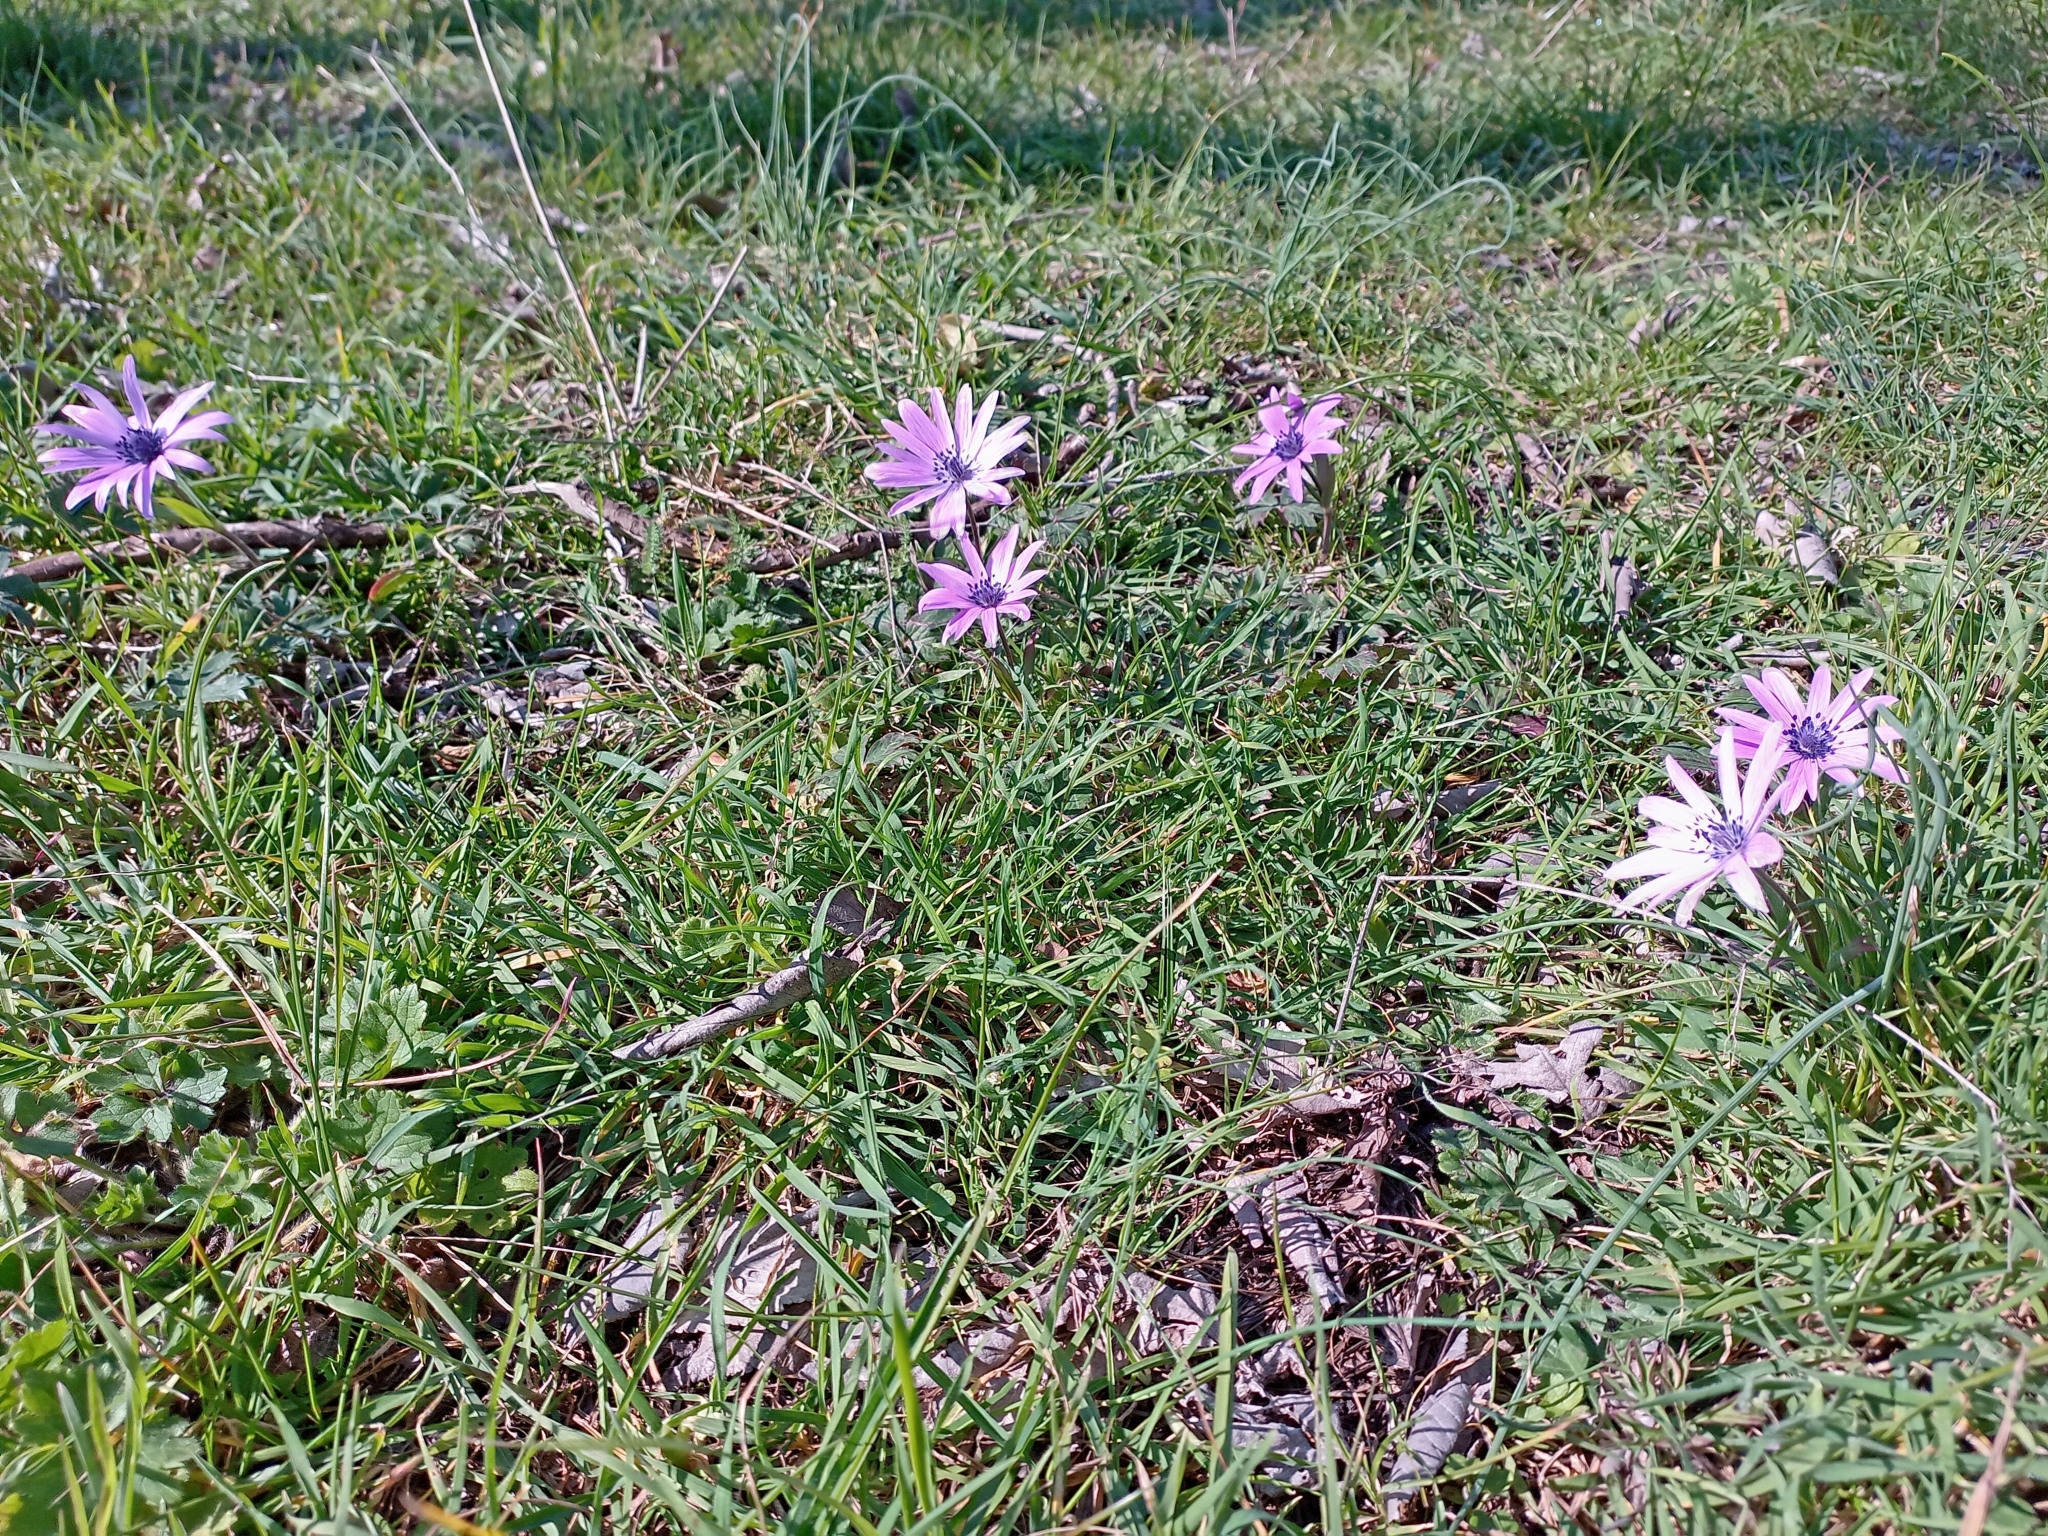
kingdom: Plantae
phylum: Tracheophyta
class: Magnoliopsida
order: Ranunculales
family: Ranunculaceae
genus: Anemone
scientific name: Anemone hortensis
